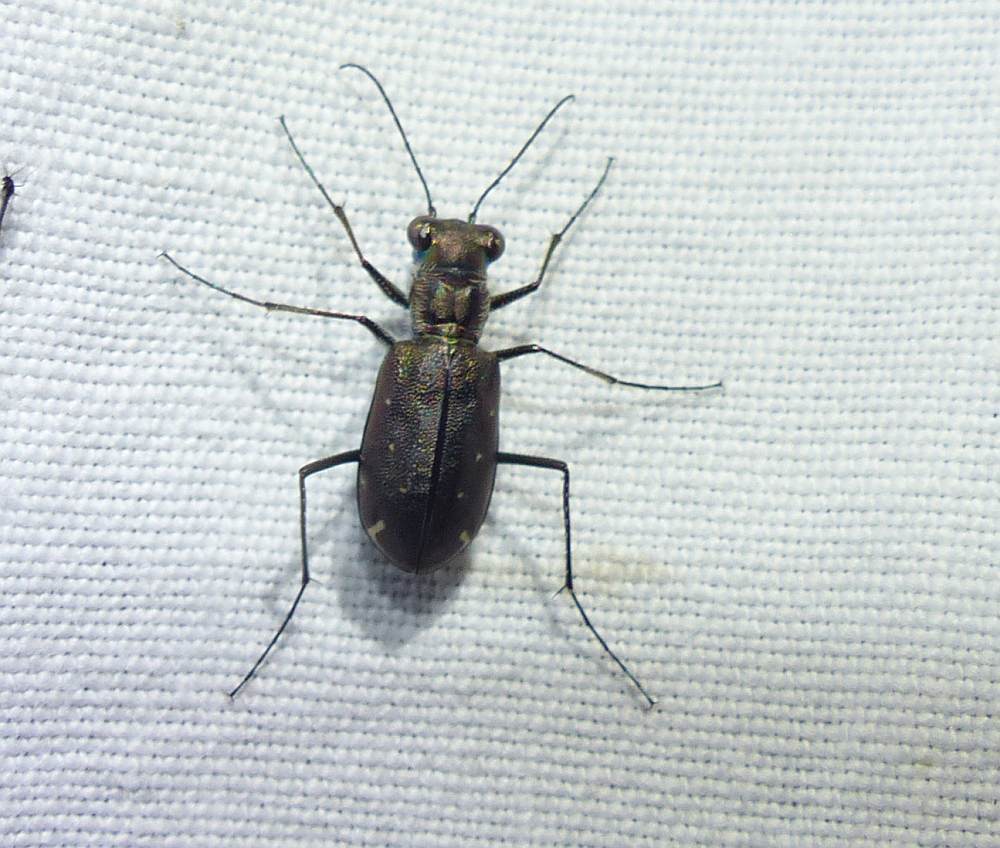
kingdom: Animalia
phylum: Arthropoda
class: Insecta
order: Coleoptera
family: Carabidae
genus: Cicindela
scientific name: Cicindela punctulata
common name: Punctured tiger beetle
